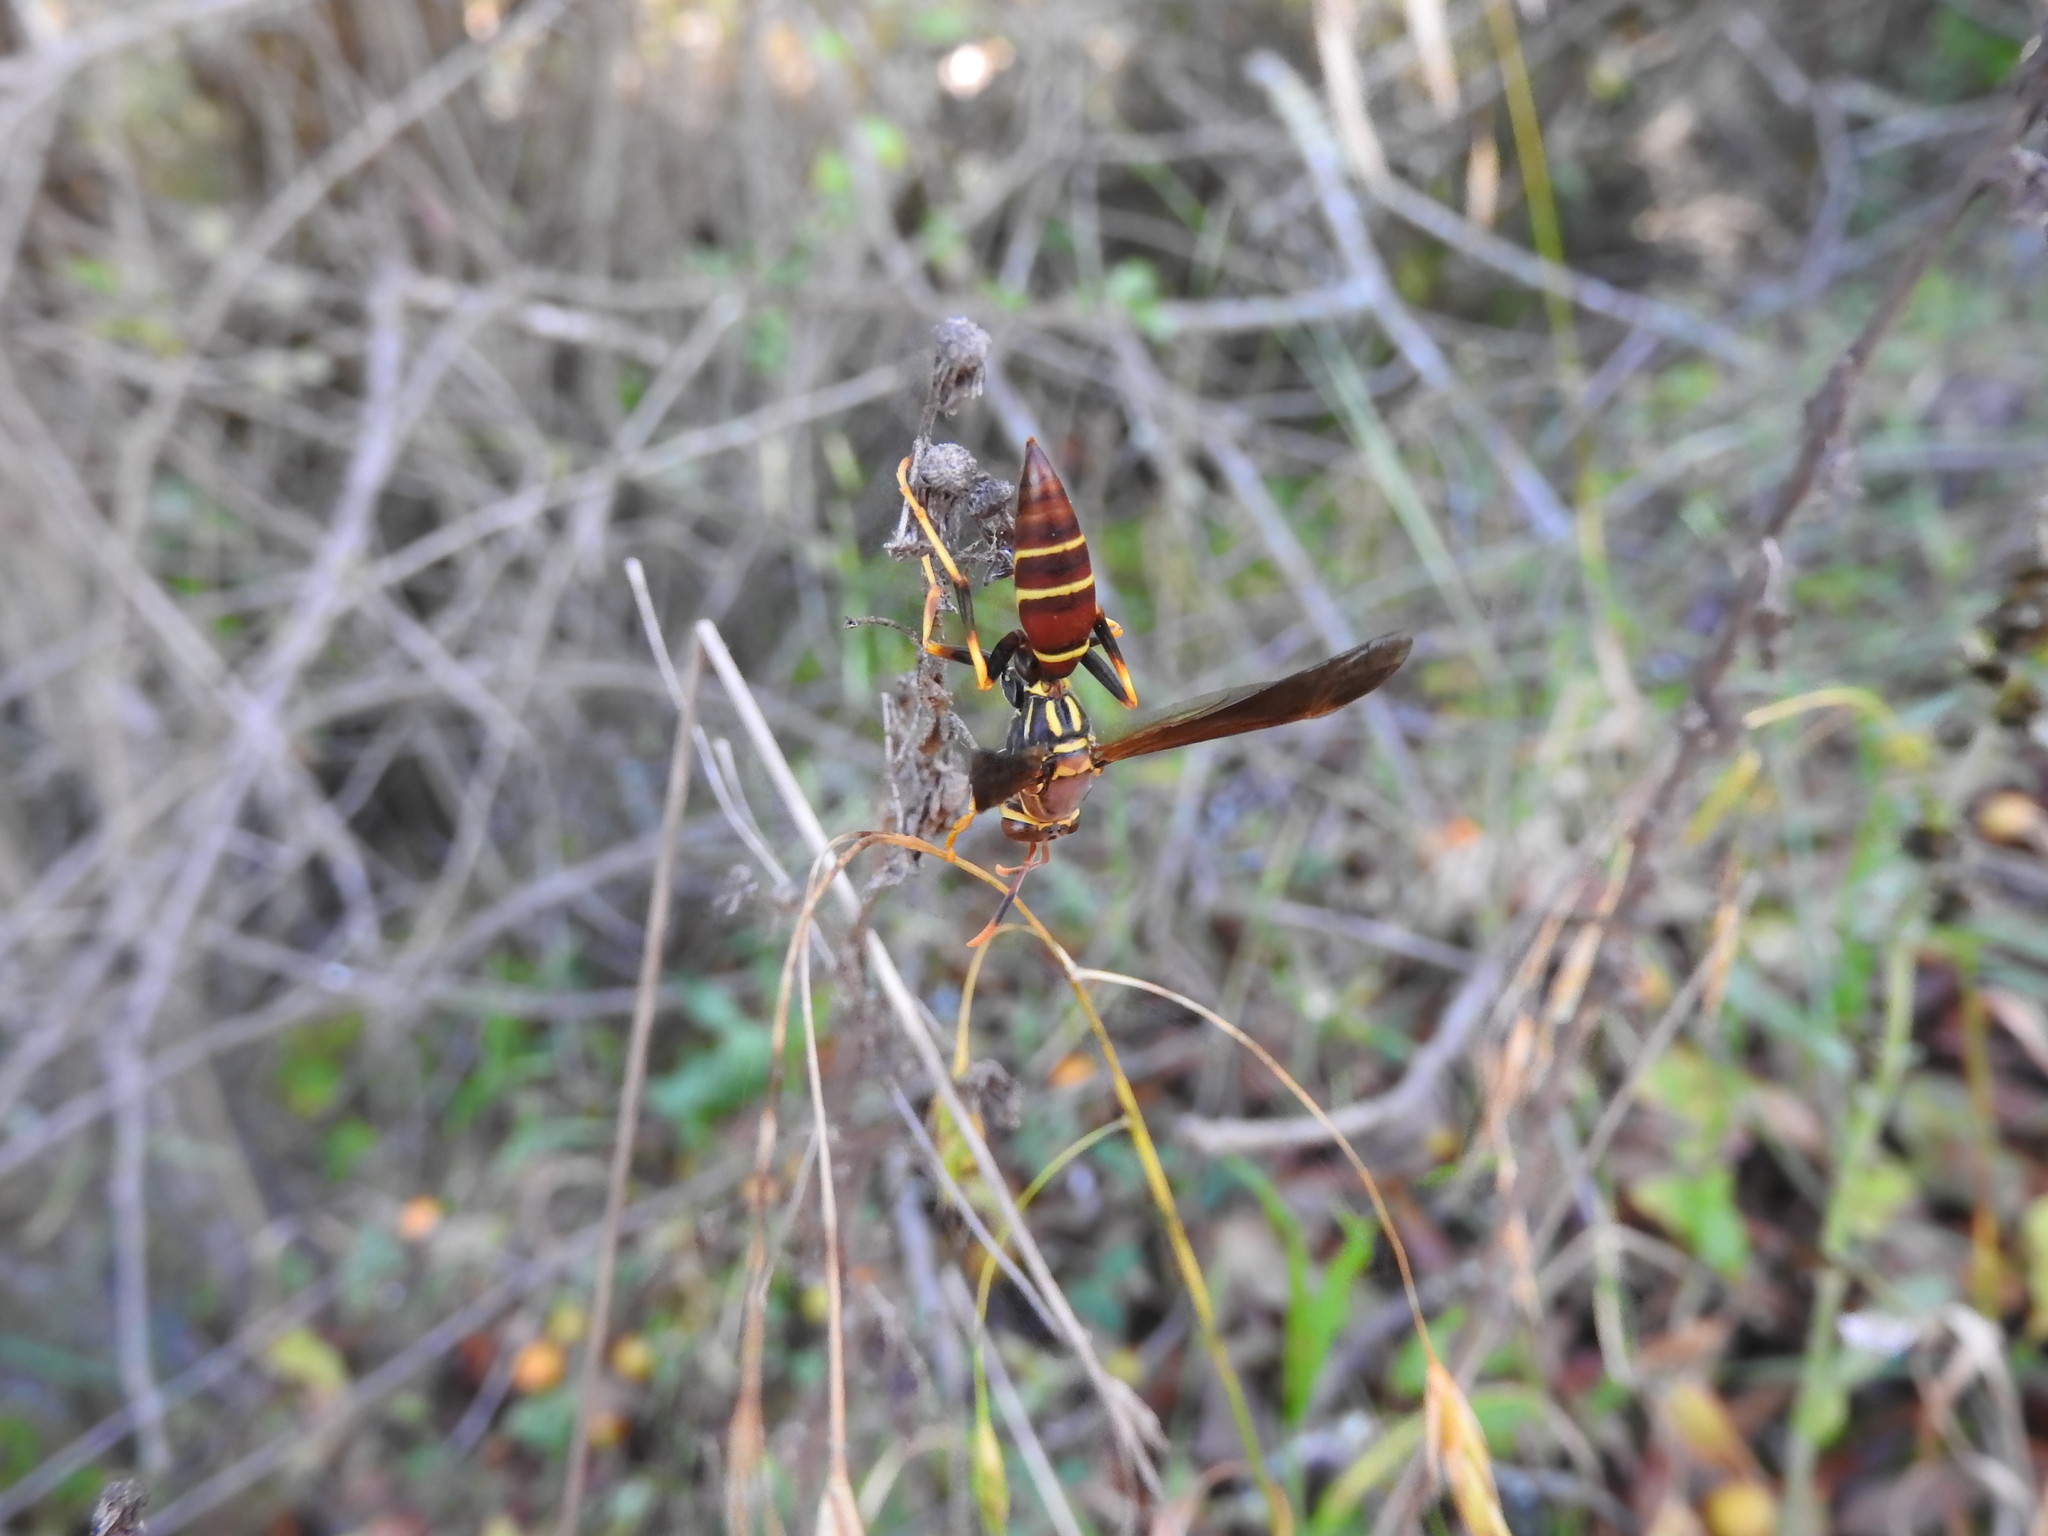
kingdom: Animalia
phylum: Arthropoda
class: Insecta
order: Hymenoptera
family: Eumenidae
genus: Polistes
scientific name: Polistes instabilis
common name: Unstable paper wasp
